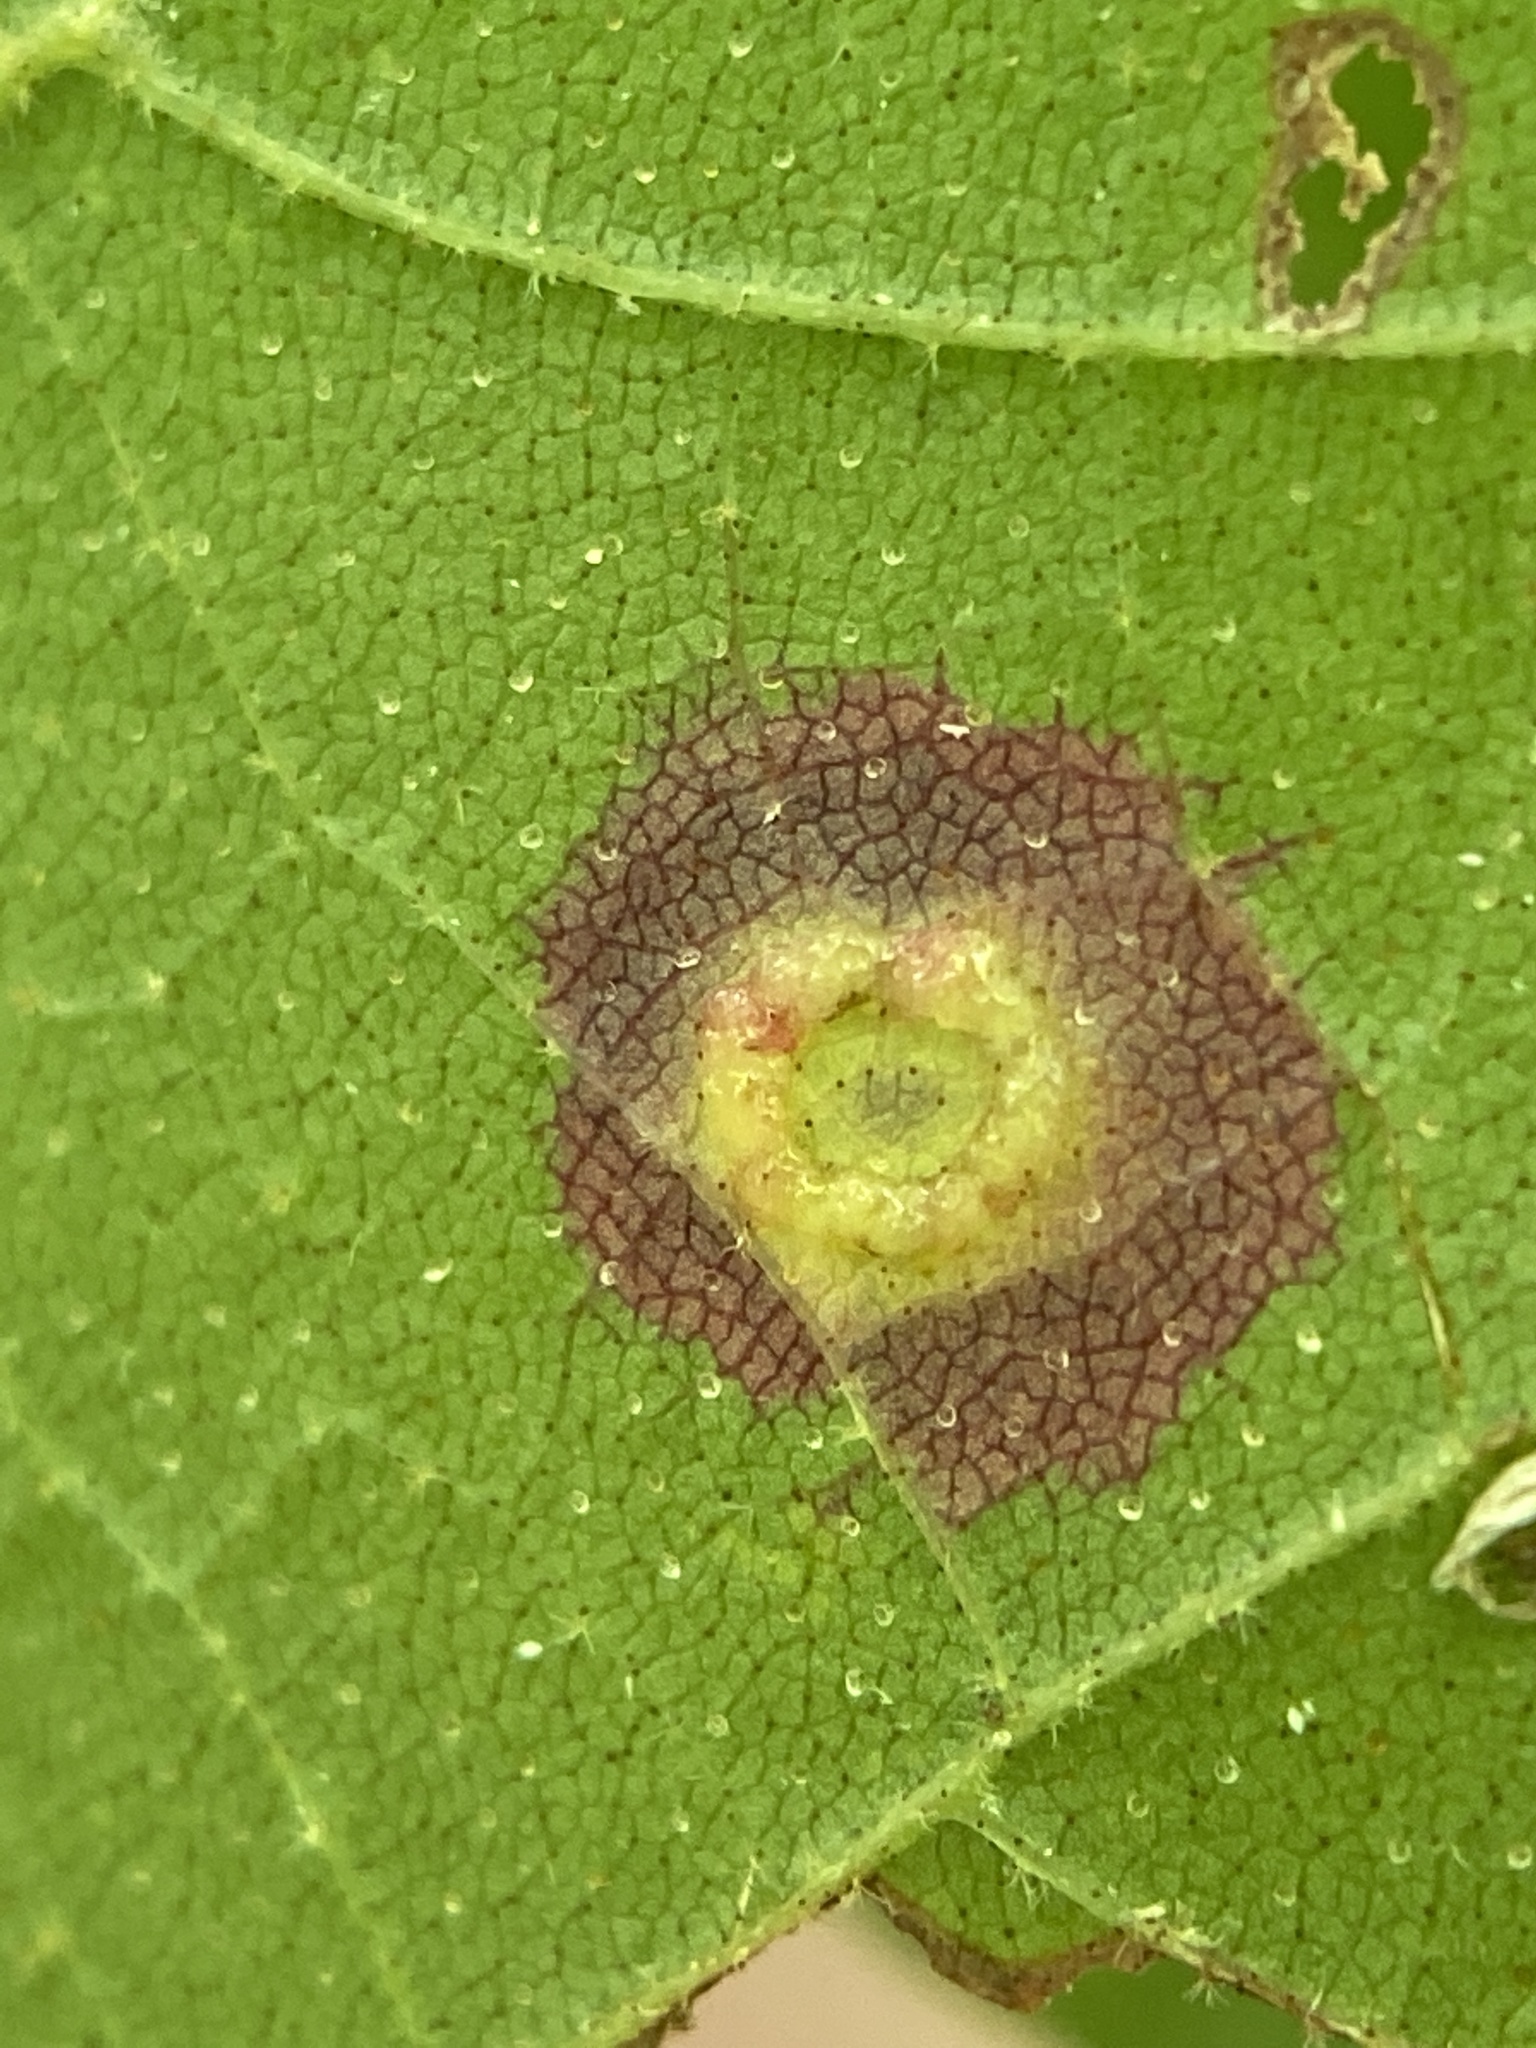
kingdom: Animalia
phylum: Arthropoda
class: Insecta
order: Diptera
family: Cecidomyiidae
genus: Gliaspilota
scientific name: Gliaspilota glutinosa
